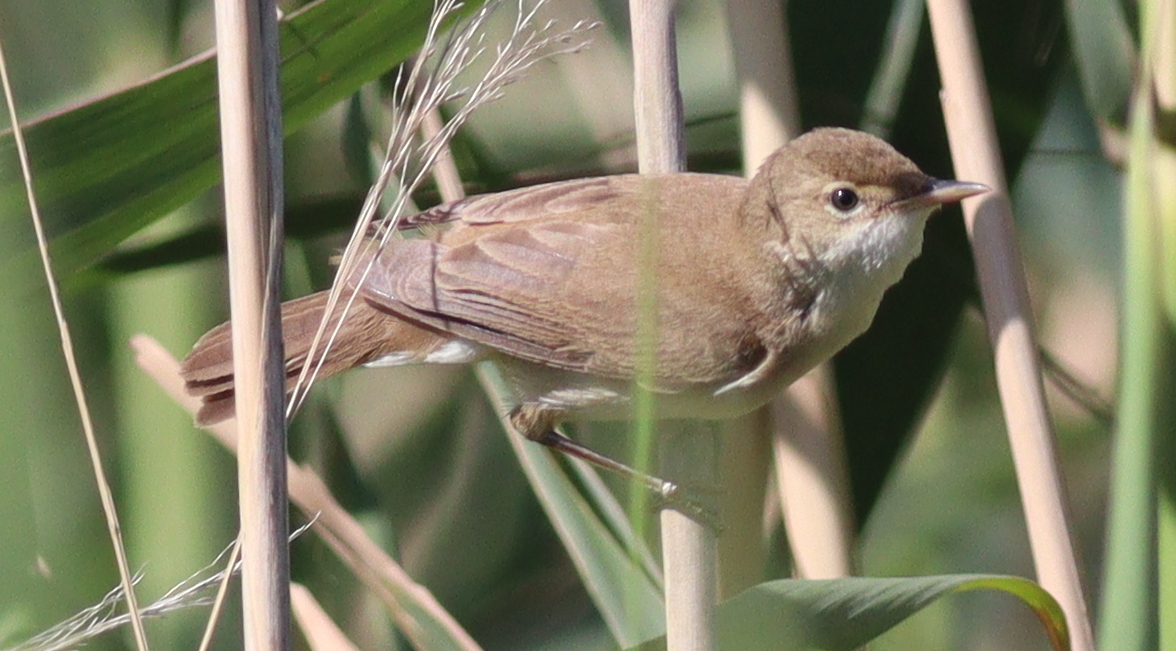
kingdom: Animalia
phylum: Chordata
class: Aves
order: Passeriformes
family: Acrocephalidae
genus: Acrocephalus
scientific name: Acrocephalus scirpaceus
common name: Eurasian reed warbler
